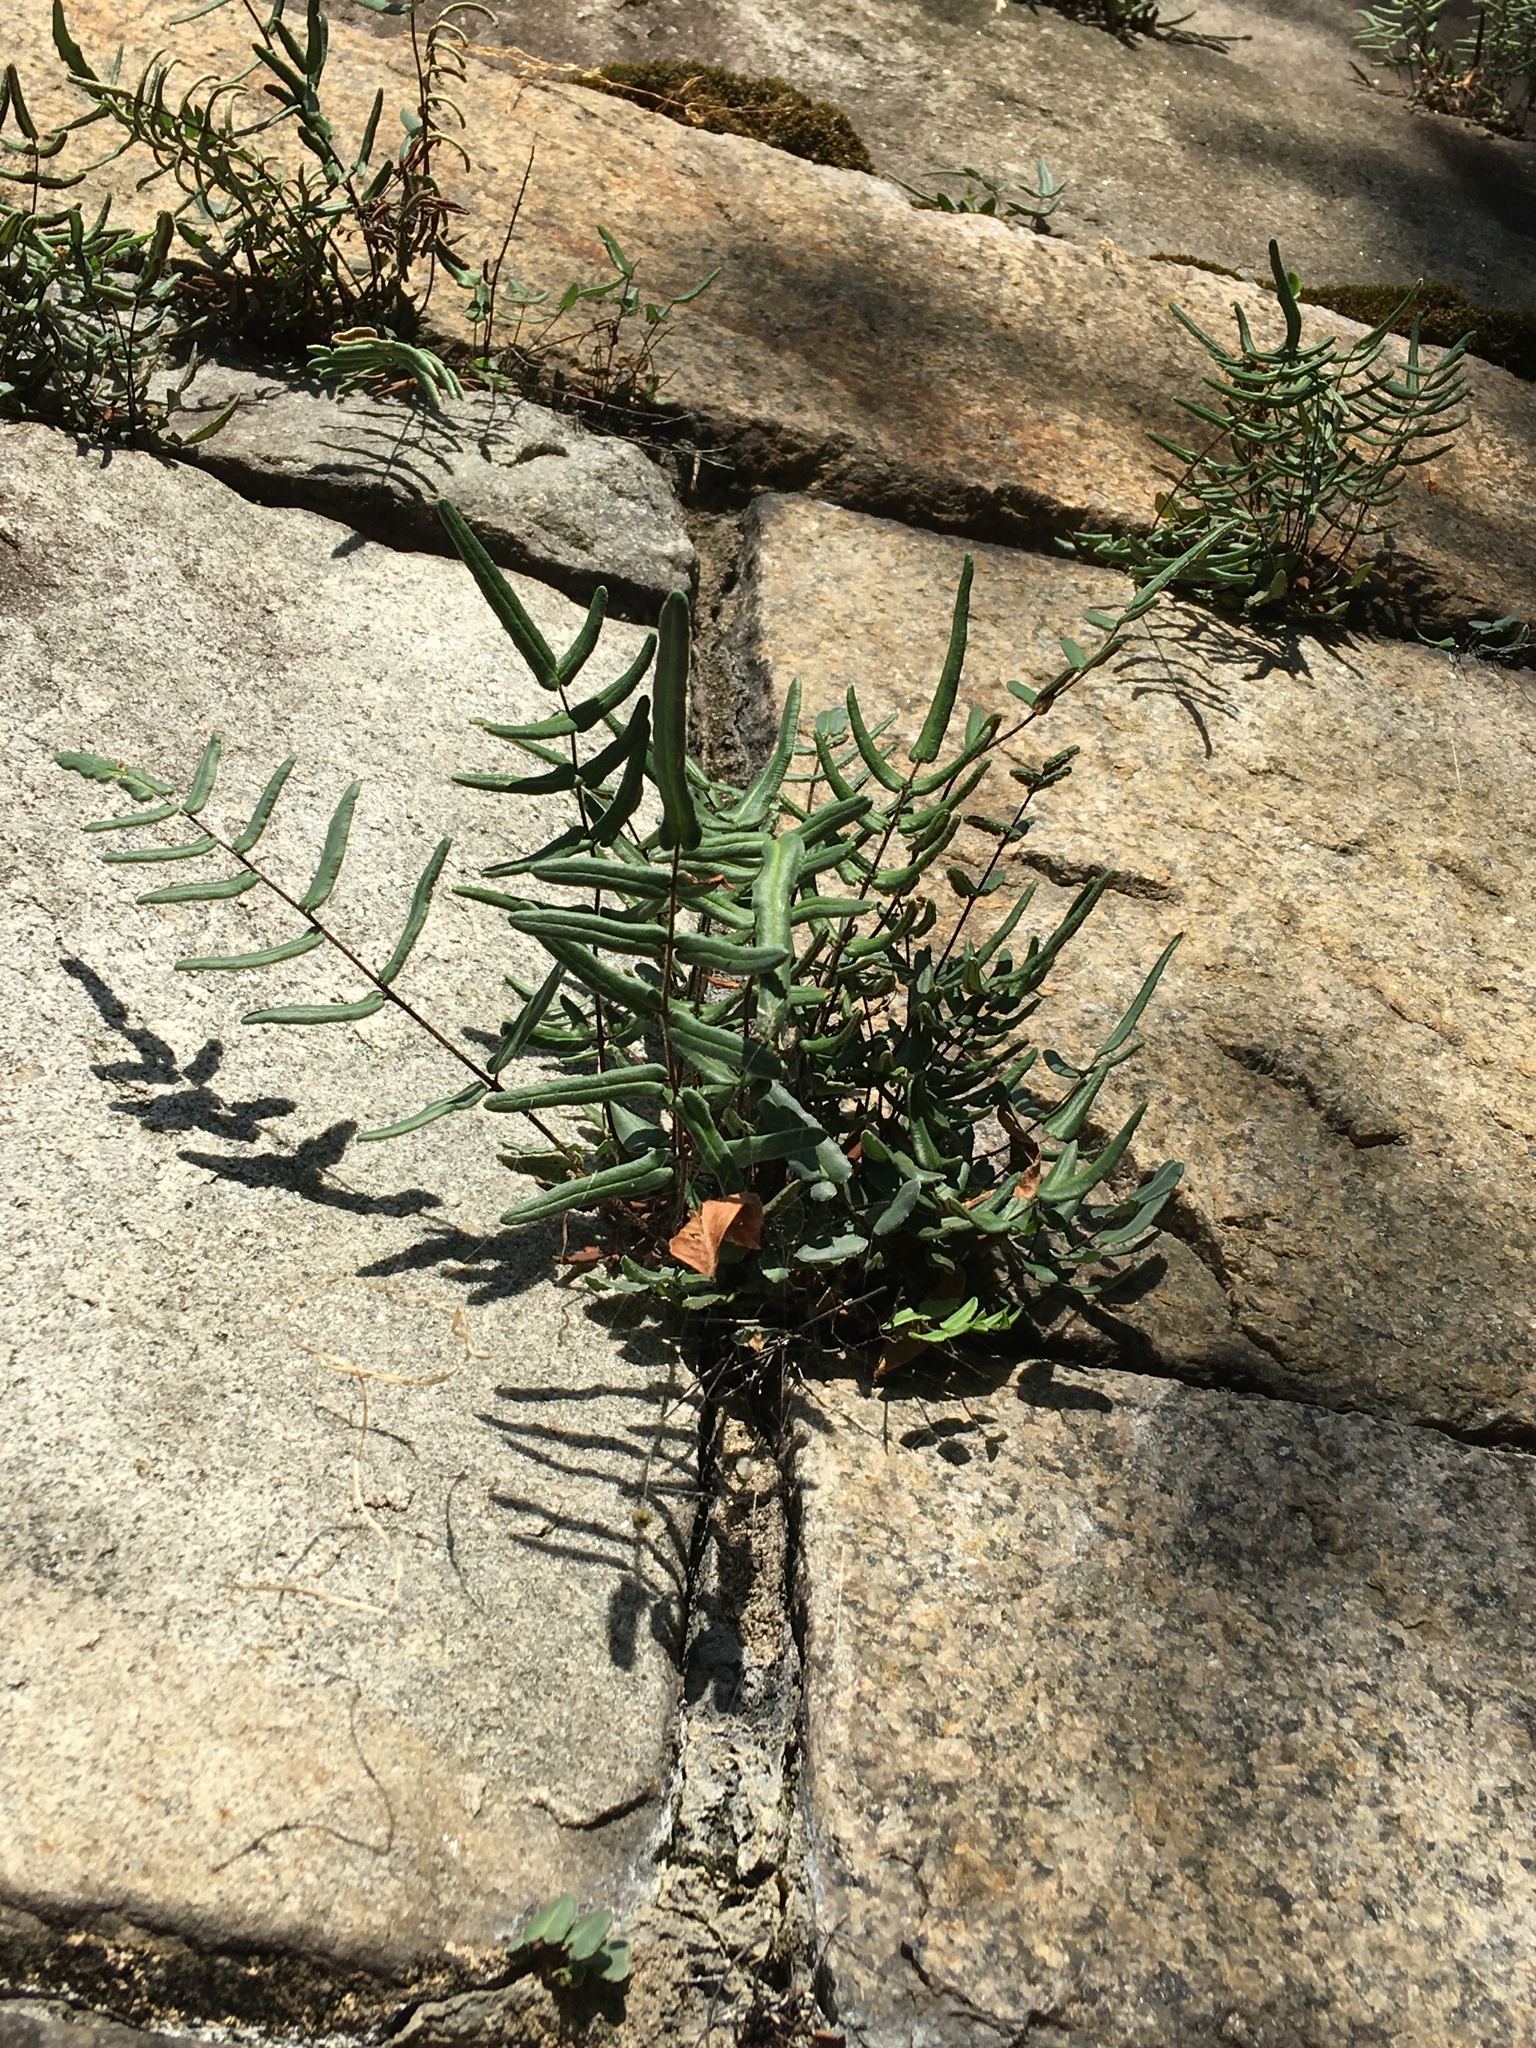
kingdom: Plantae
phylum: Tracheophyta
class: Polypodiopsida
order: Polypodiales
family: Pteridaceae
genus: Pellaea
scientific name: Pellaea atropurpurea
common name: Hairy cliffbrake
